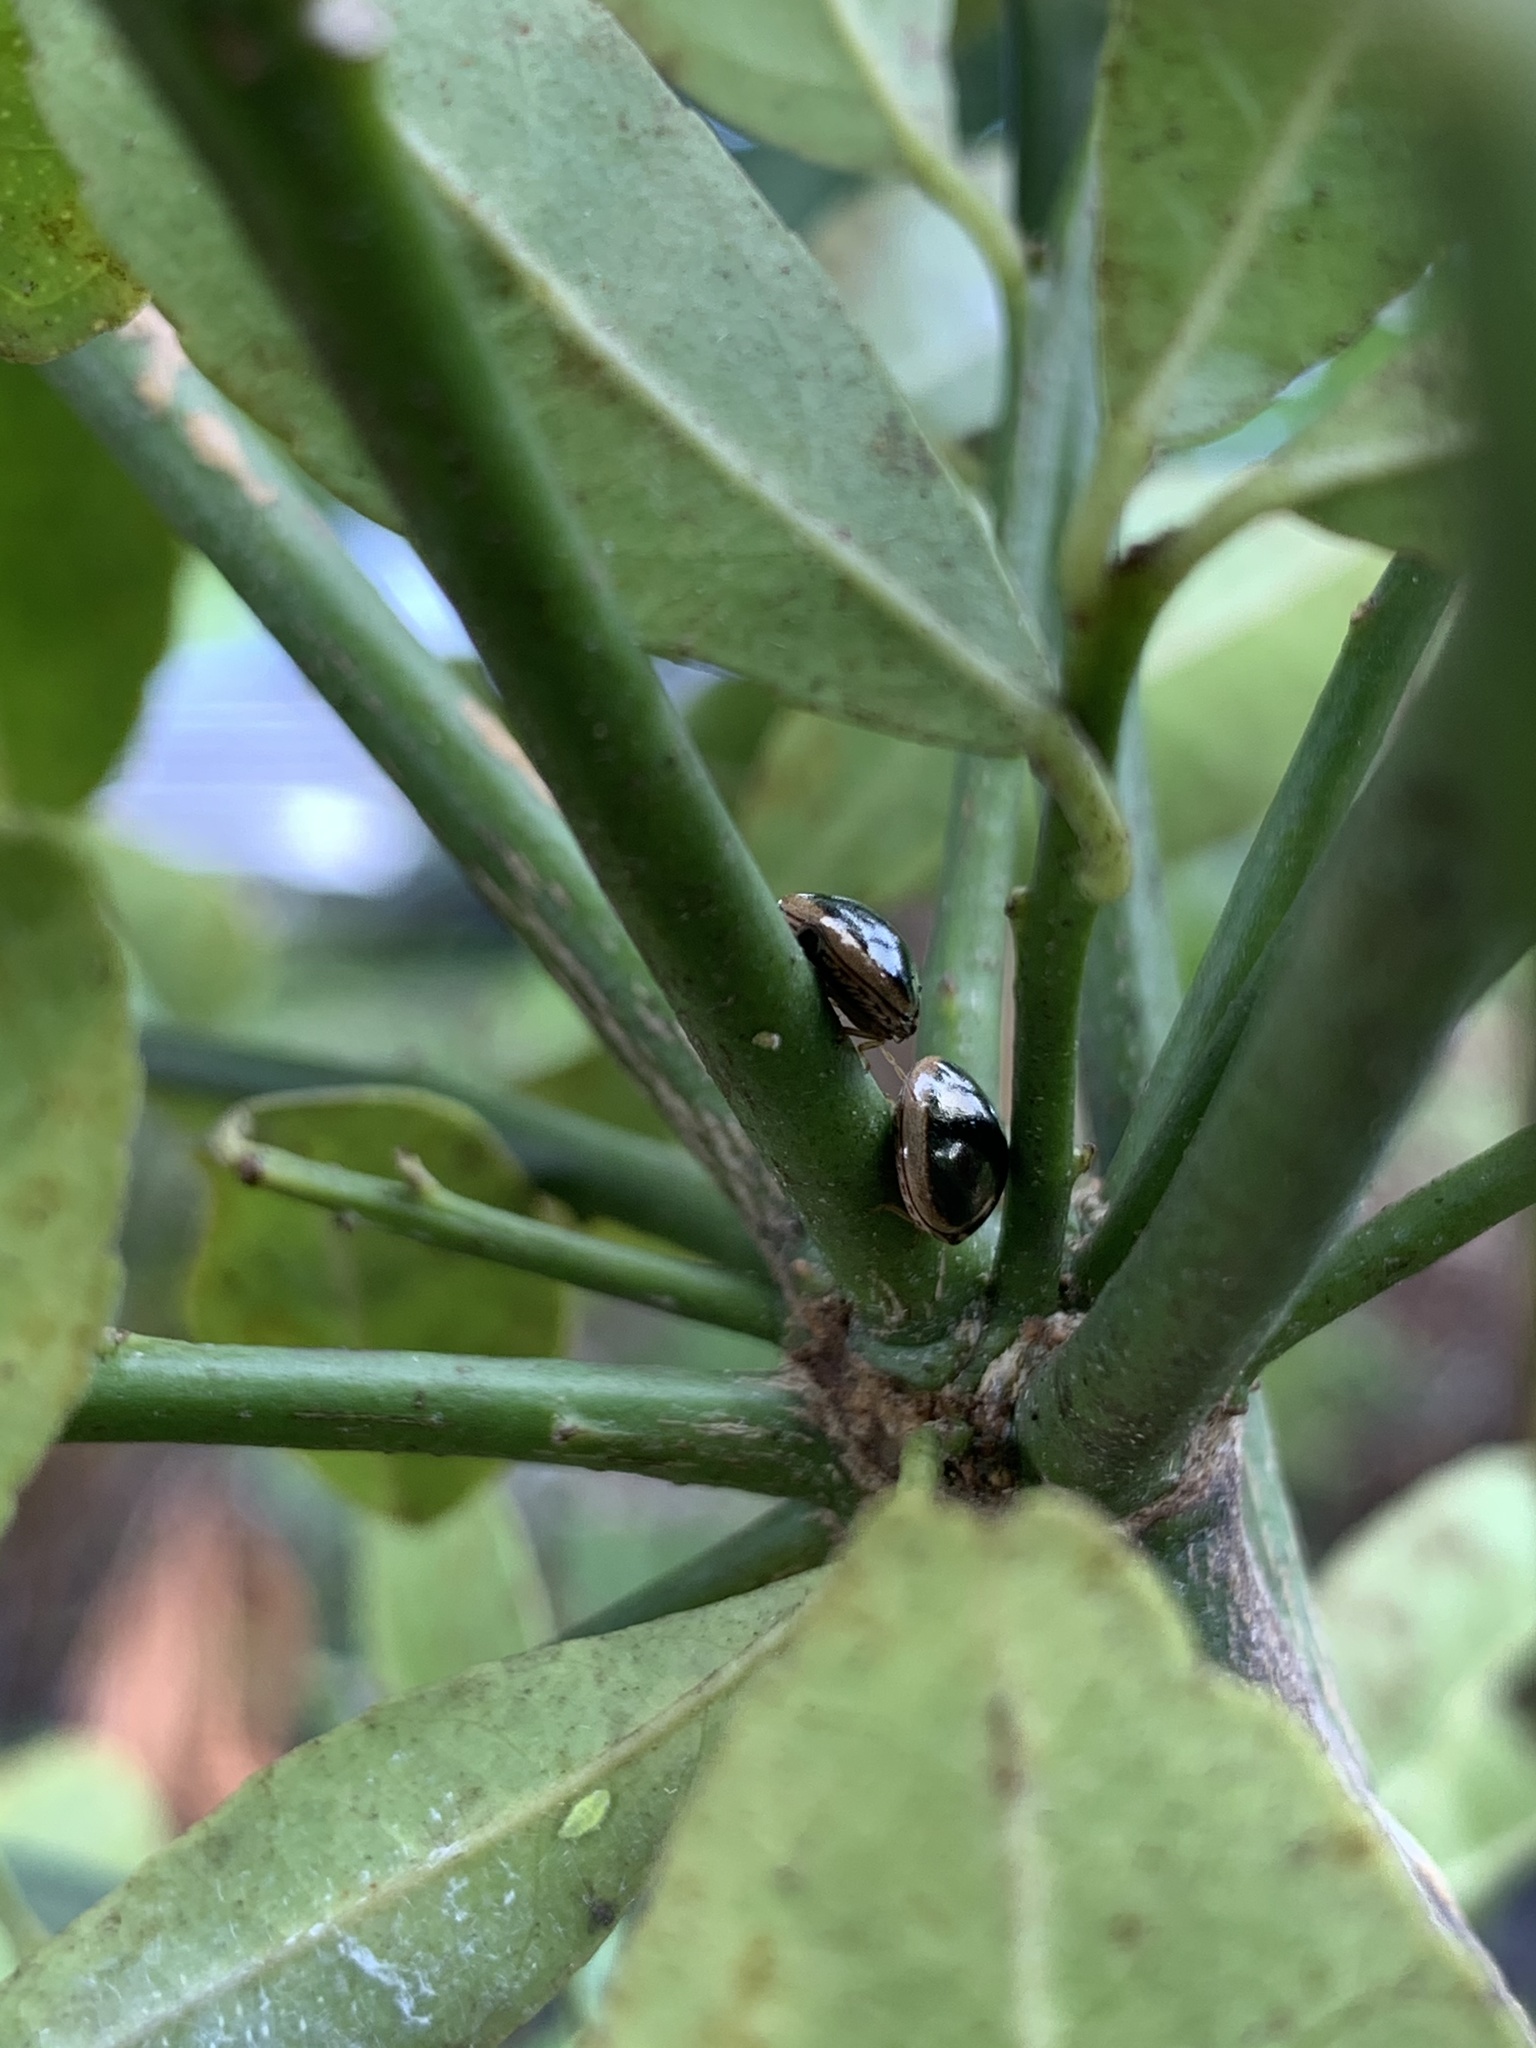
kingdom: Animalia
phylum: Arthropoda
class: Insecta
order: Hemiptera
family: Plataspidae
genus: Coptosoma
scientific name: Coptosoma
